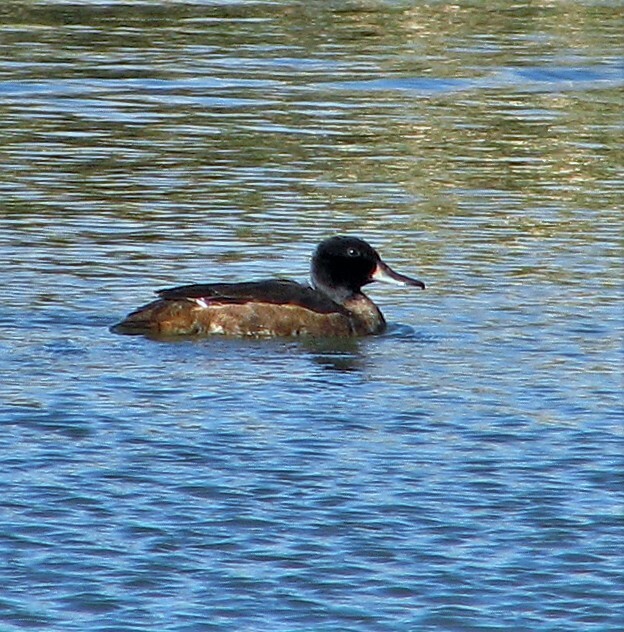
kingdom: Animalia
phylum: Chordata
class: Aves
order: Anseriformes
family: Anatidae
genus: Heteronetta
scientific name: Heteronetta atricapilla
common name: Black-headed duck
